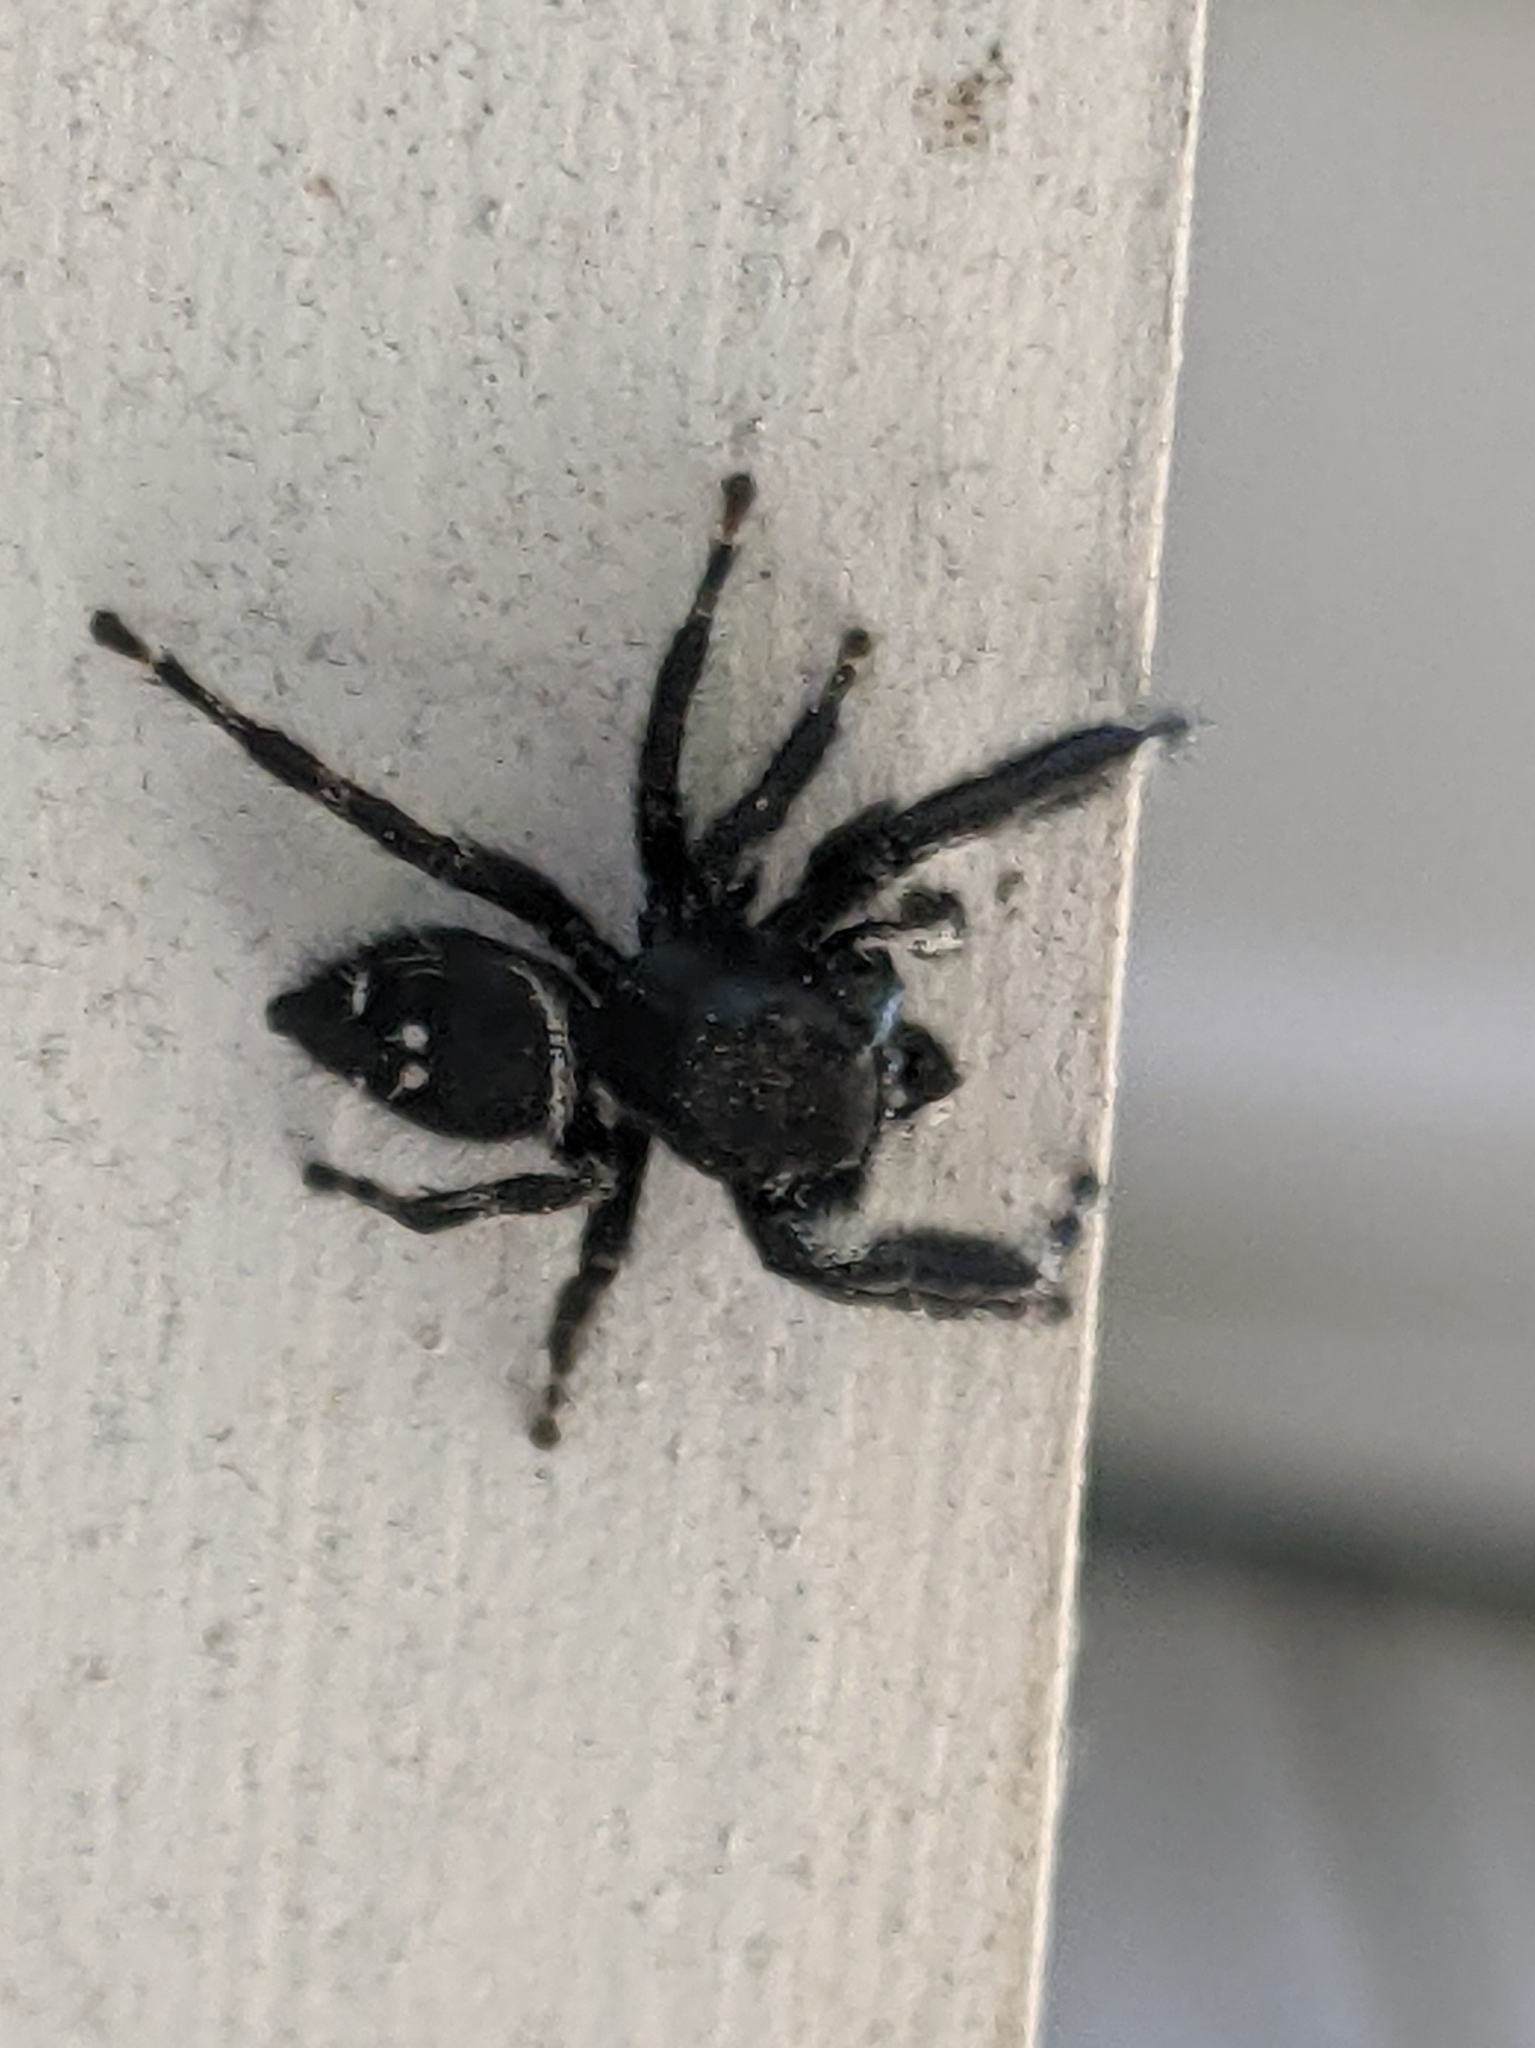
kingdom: Animalia
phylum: Arthropoda
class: Arachnida
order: Araneae
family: Salticidae
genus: Phidippus
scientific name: Phidippus audax
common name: Bold jumper
